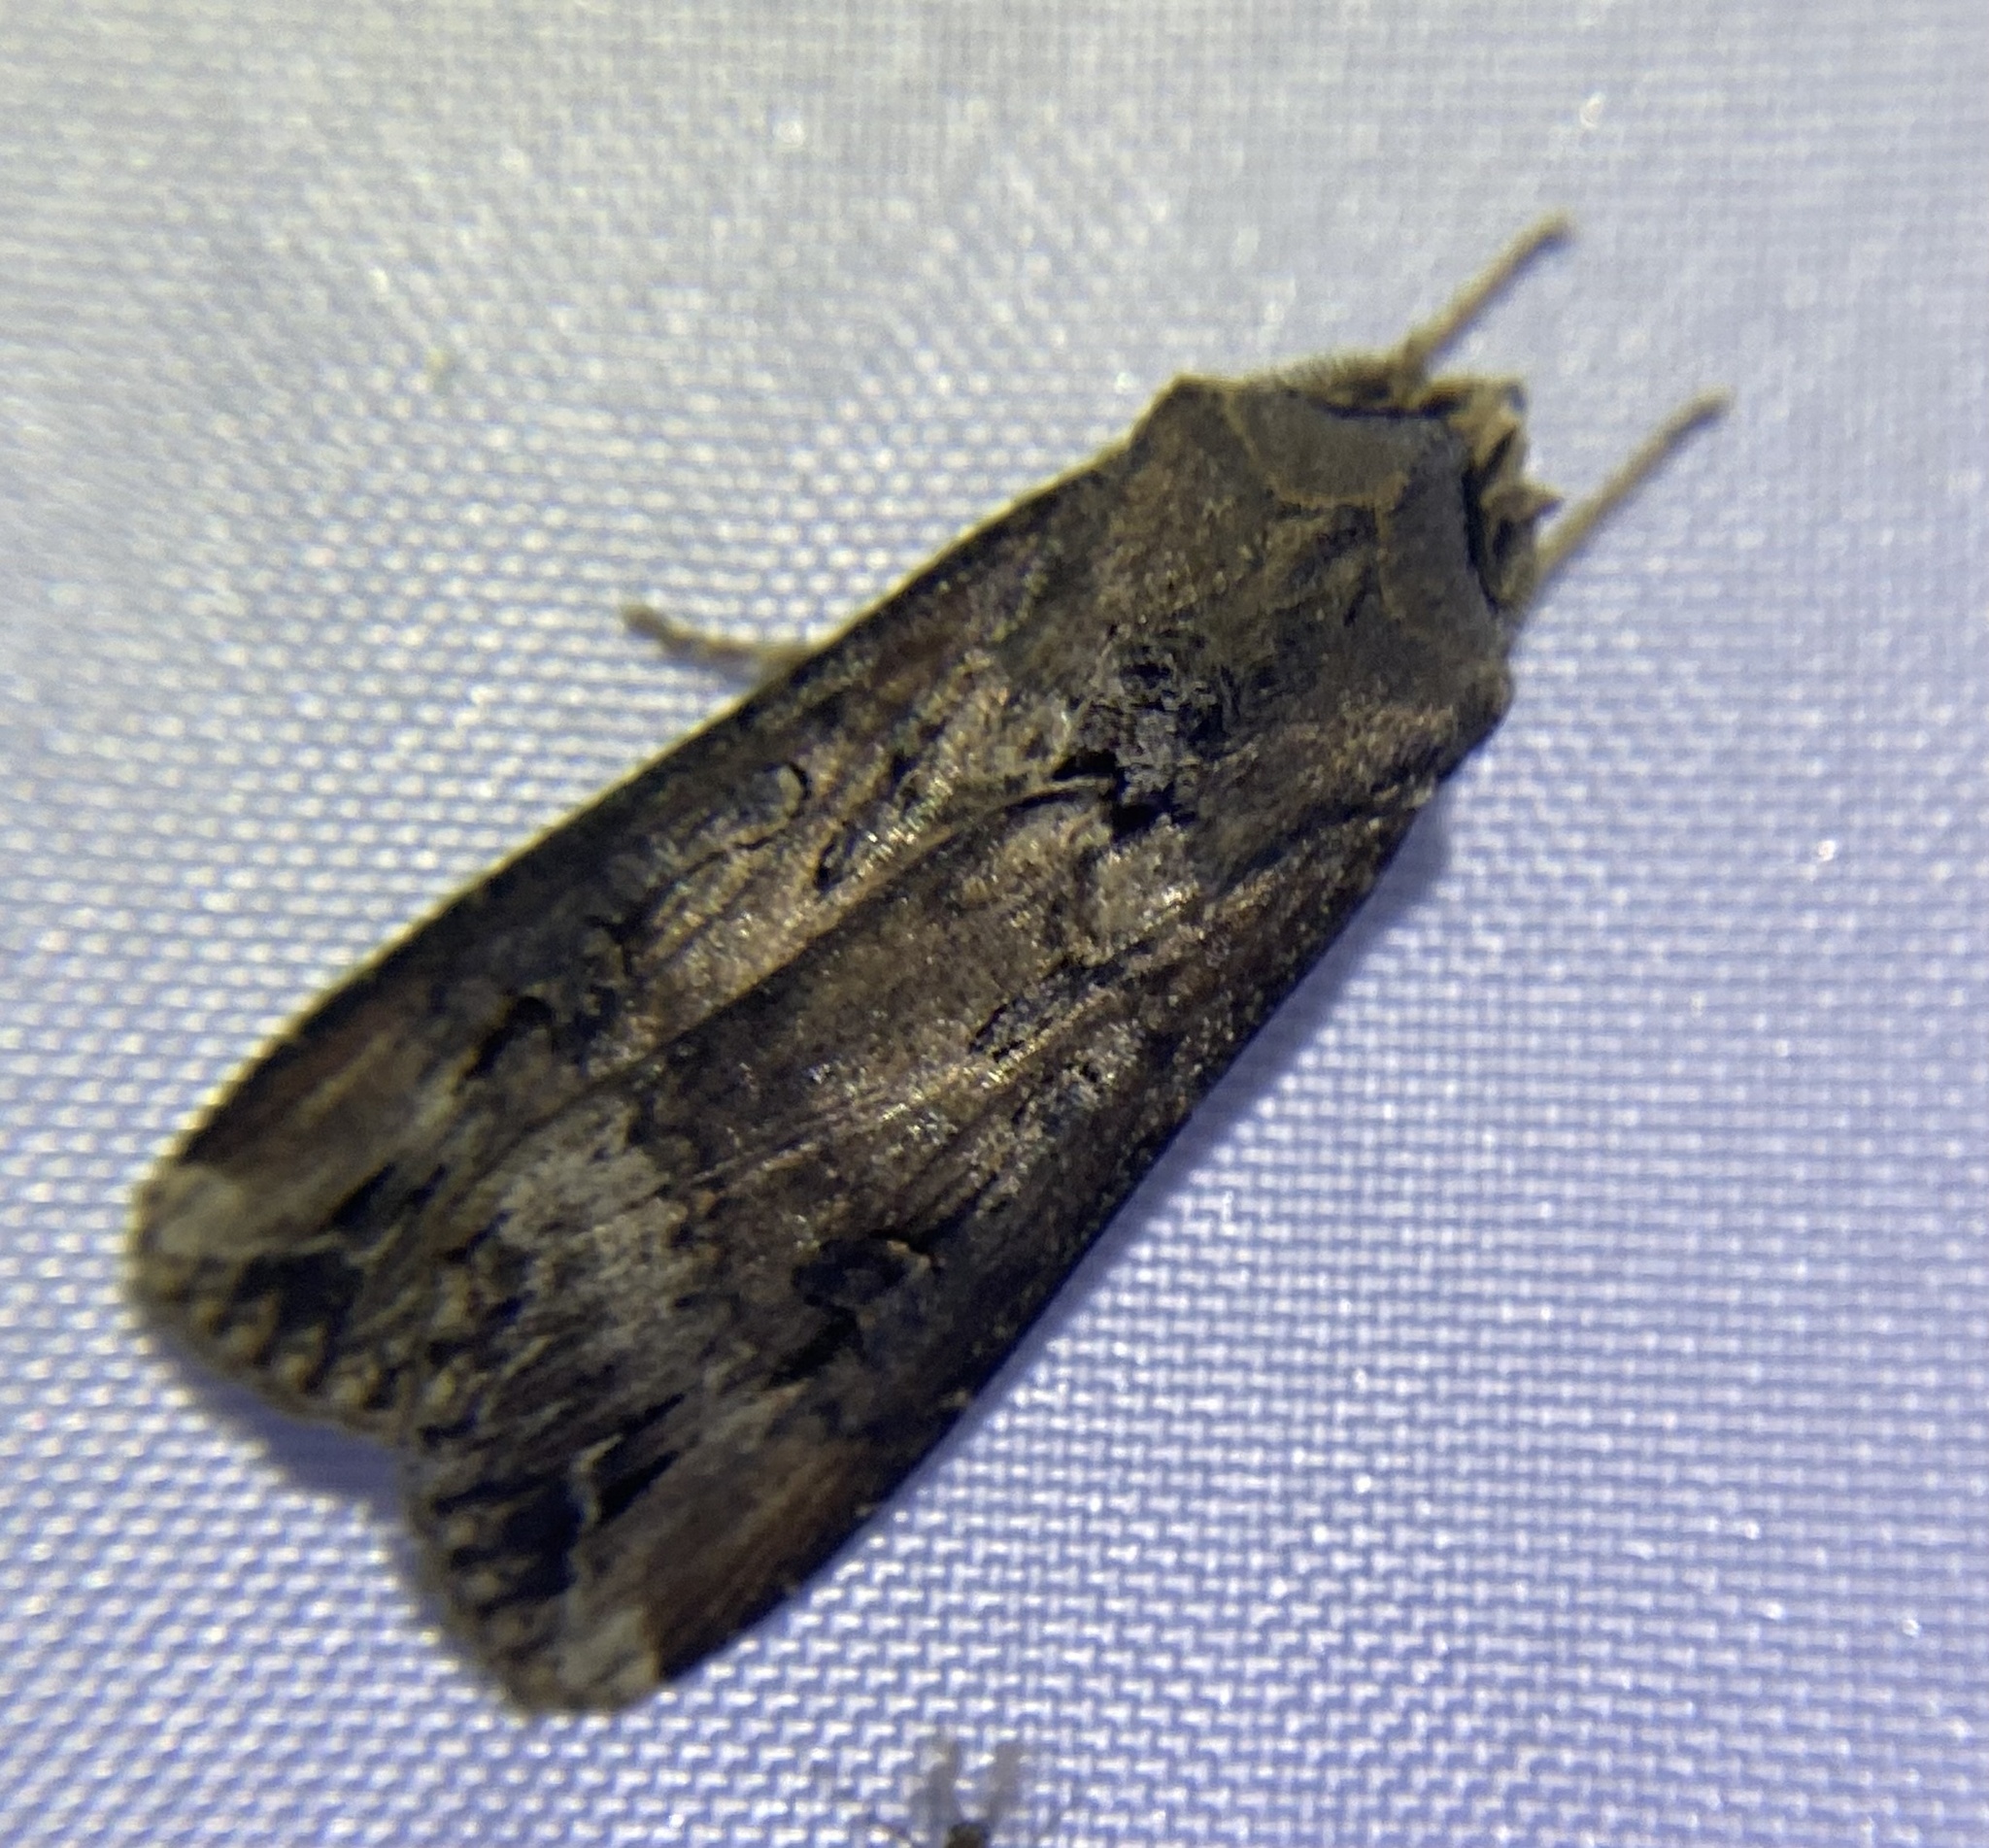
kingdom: Animalia
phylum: Arthropoda
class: Insecta
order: Lepidoptera
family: Noctuidae
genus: Agrotis
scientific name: Agrotis ipsilon
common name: Dark sword-grass
